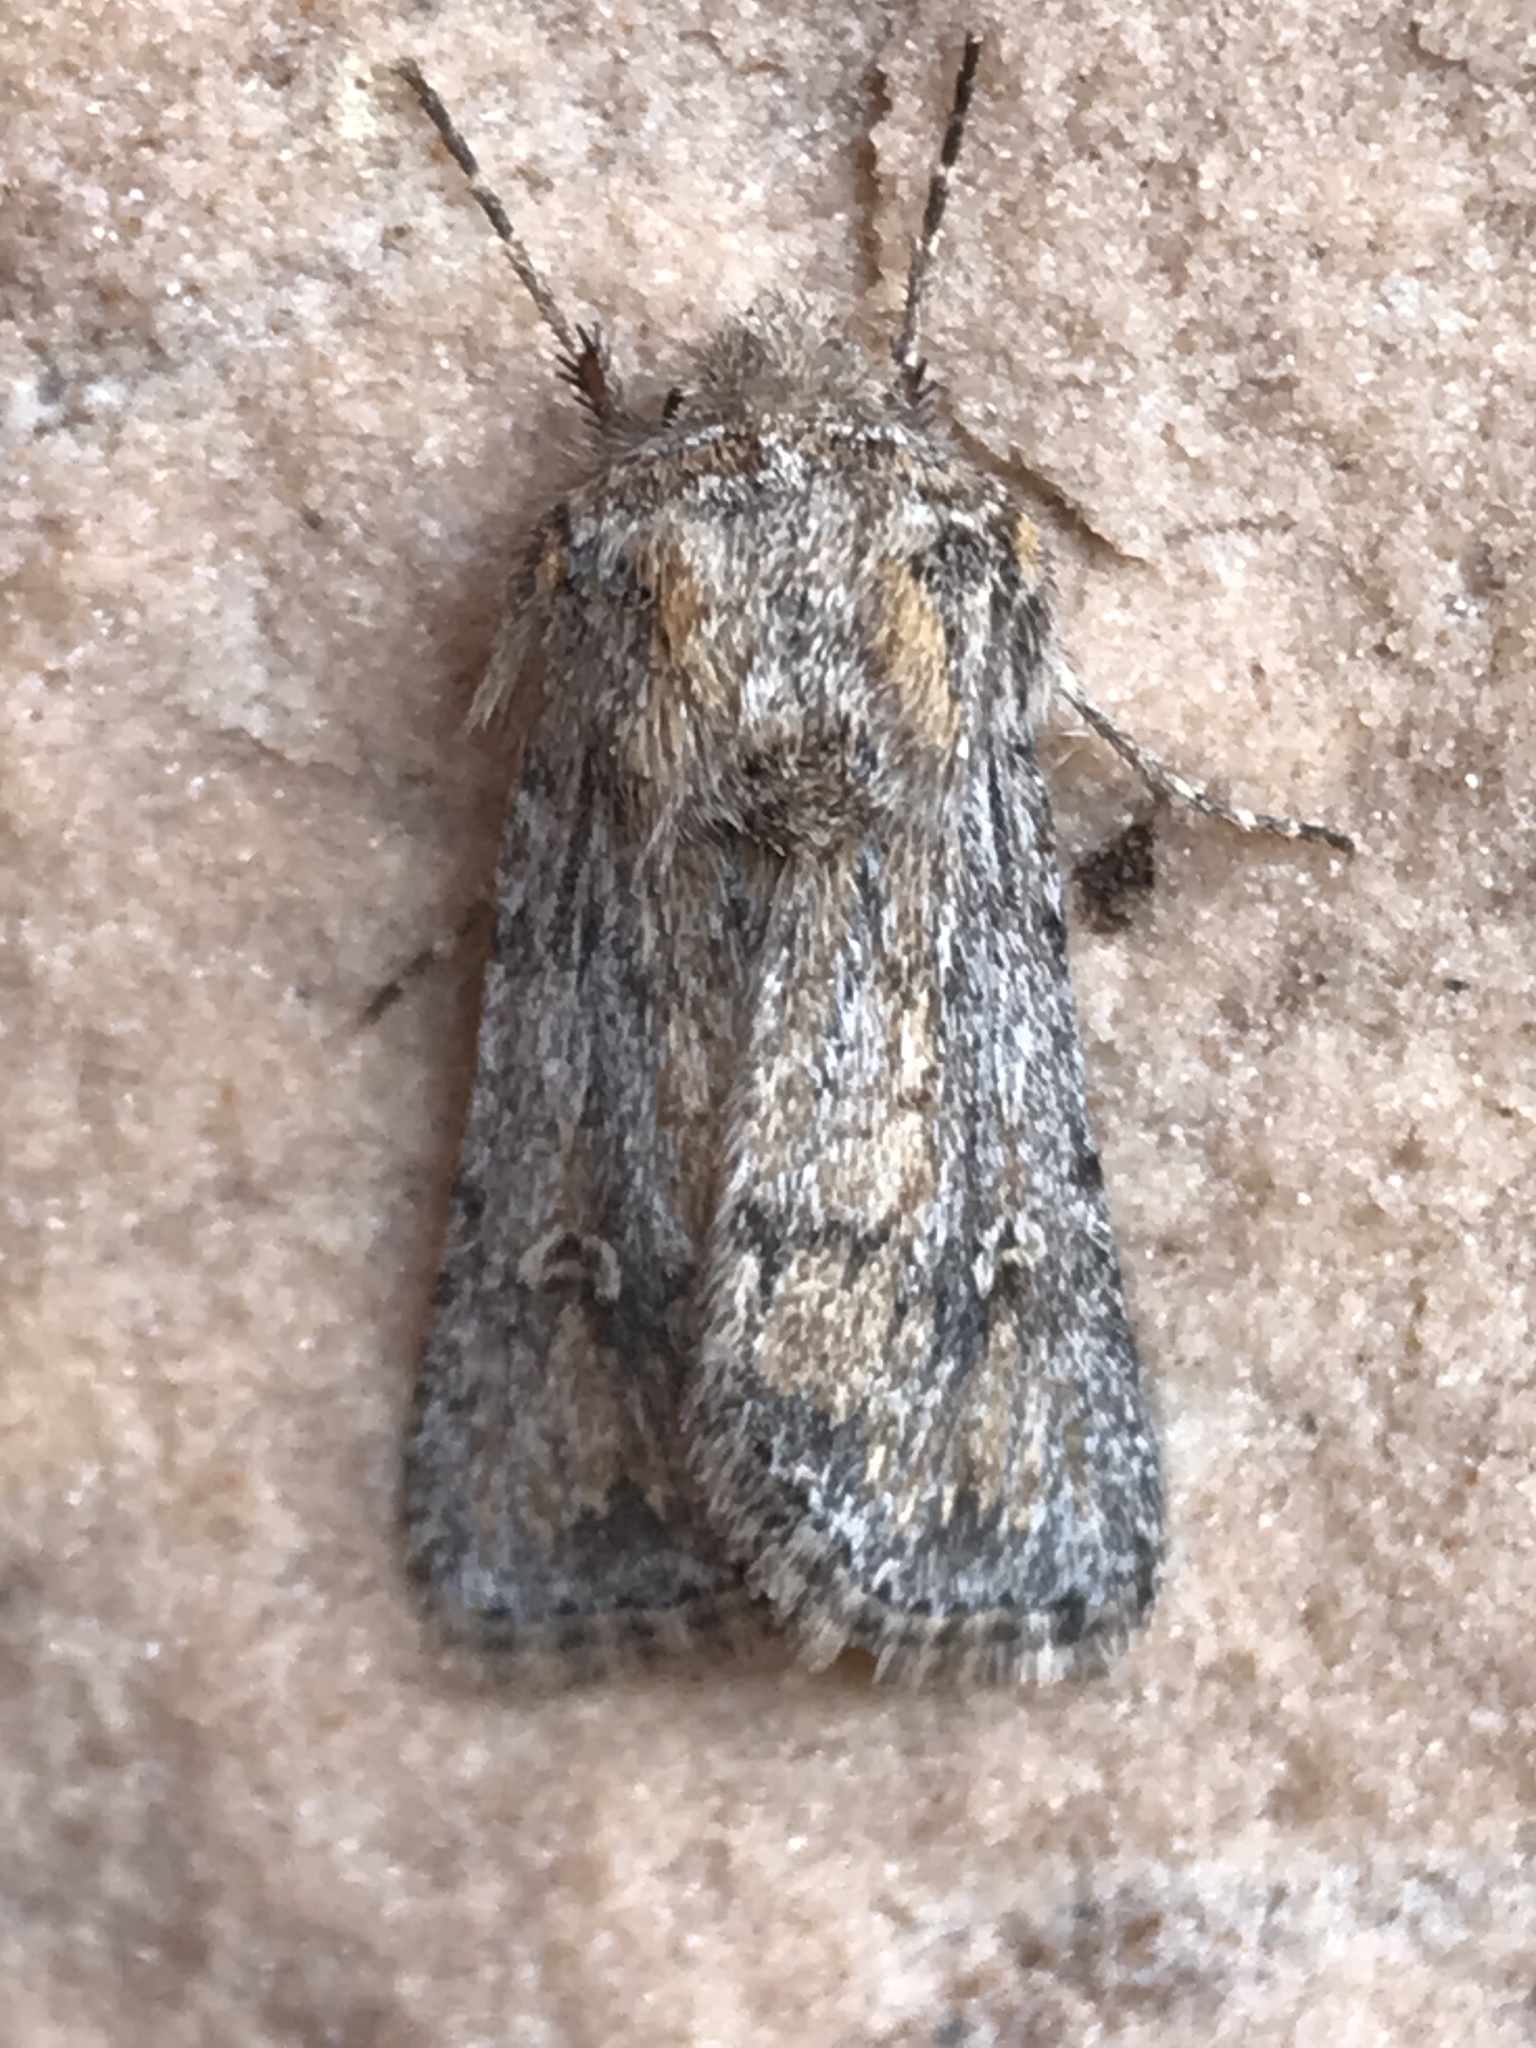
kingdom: Animalia
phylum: Arthropoda
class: Insecta
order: Lepidoptera
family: Noctuidae
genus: Eucoptocnemis
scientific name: Eucoptocnemis dollii
